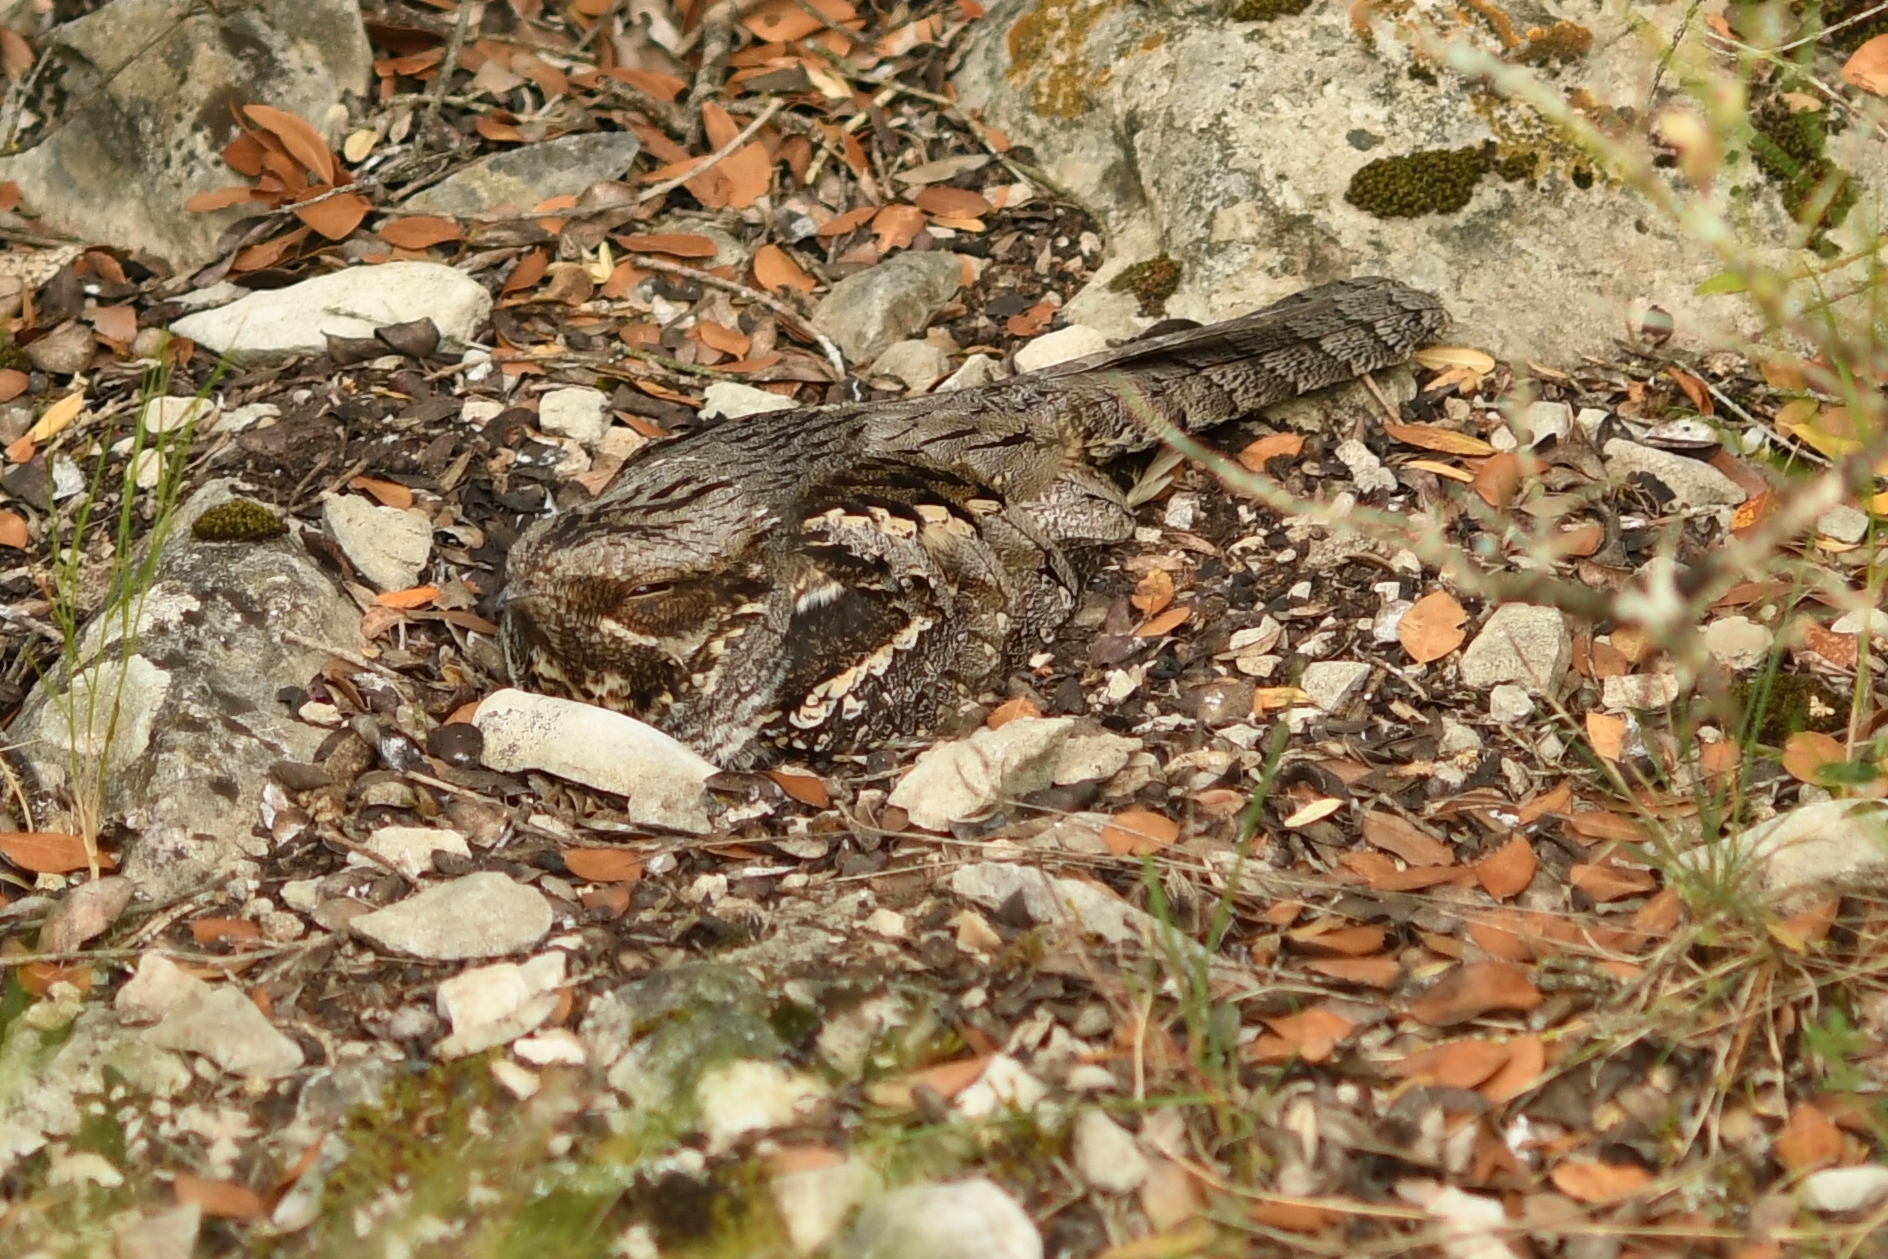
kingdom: Animalia
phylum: Chordata
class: Aves
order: Caprimulgiformes
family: Caprimulgidae
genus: Caprimulgus
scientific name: Caprimulgus europaeus
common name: European nightjar
